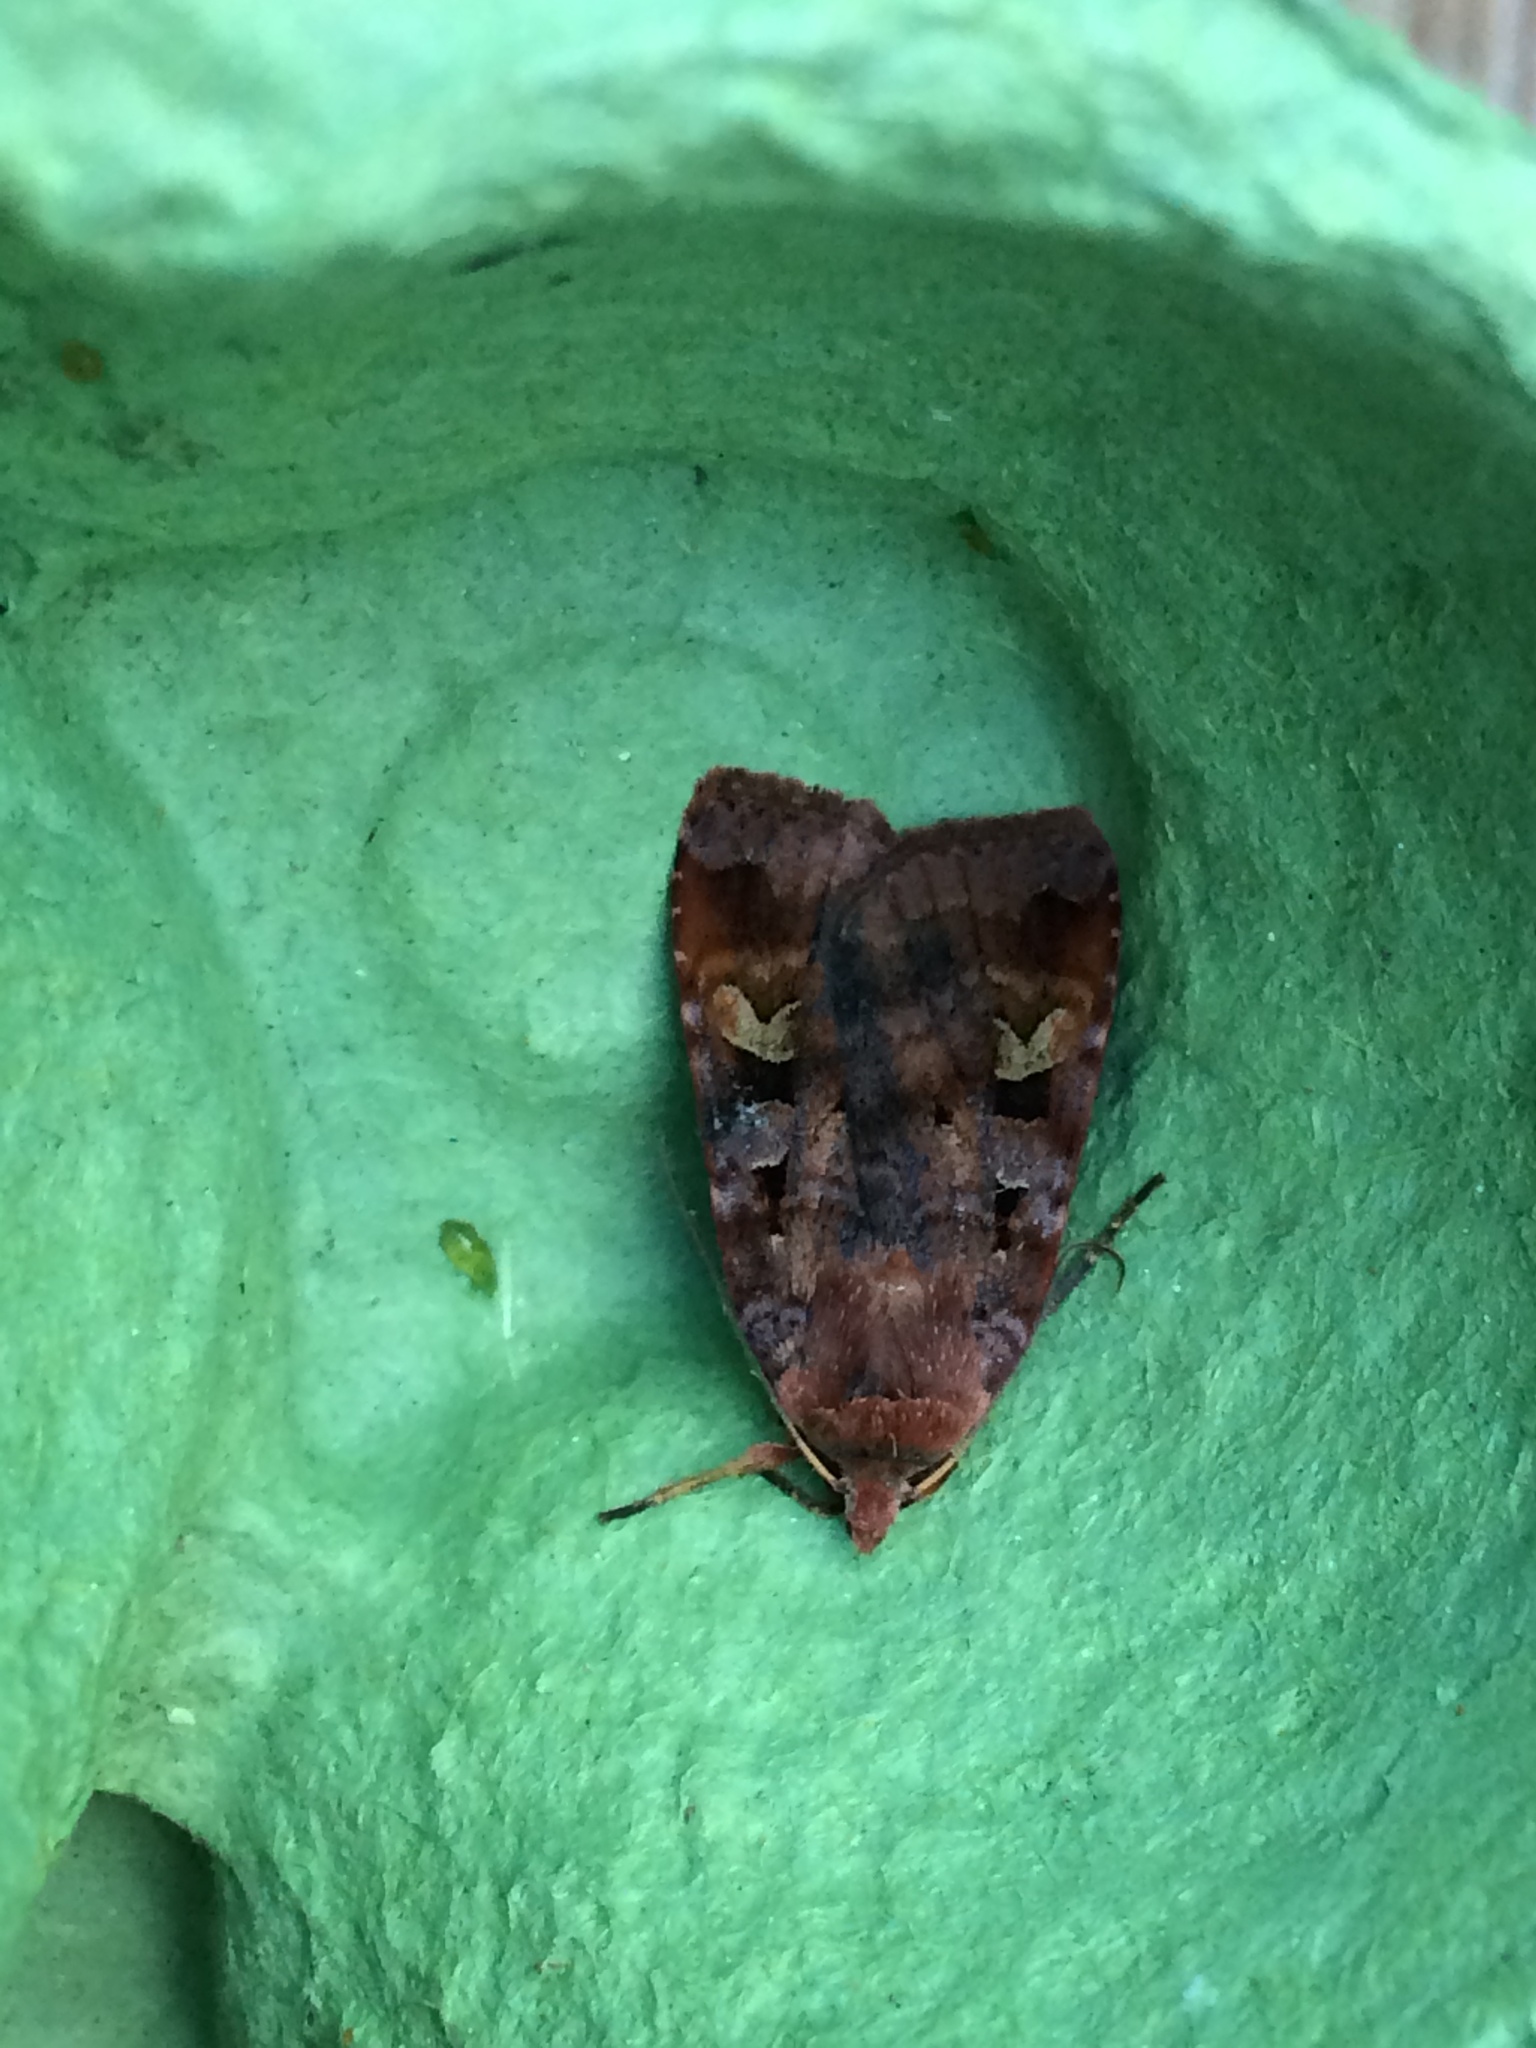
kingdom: Animalia
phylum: Arthropoda
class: Insecta
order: Lepidoptera
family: Noctuidae
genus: Diarsia
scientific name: Diarsia brunnea
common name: Purple clay
